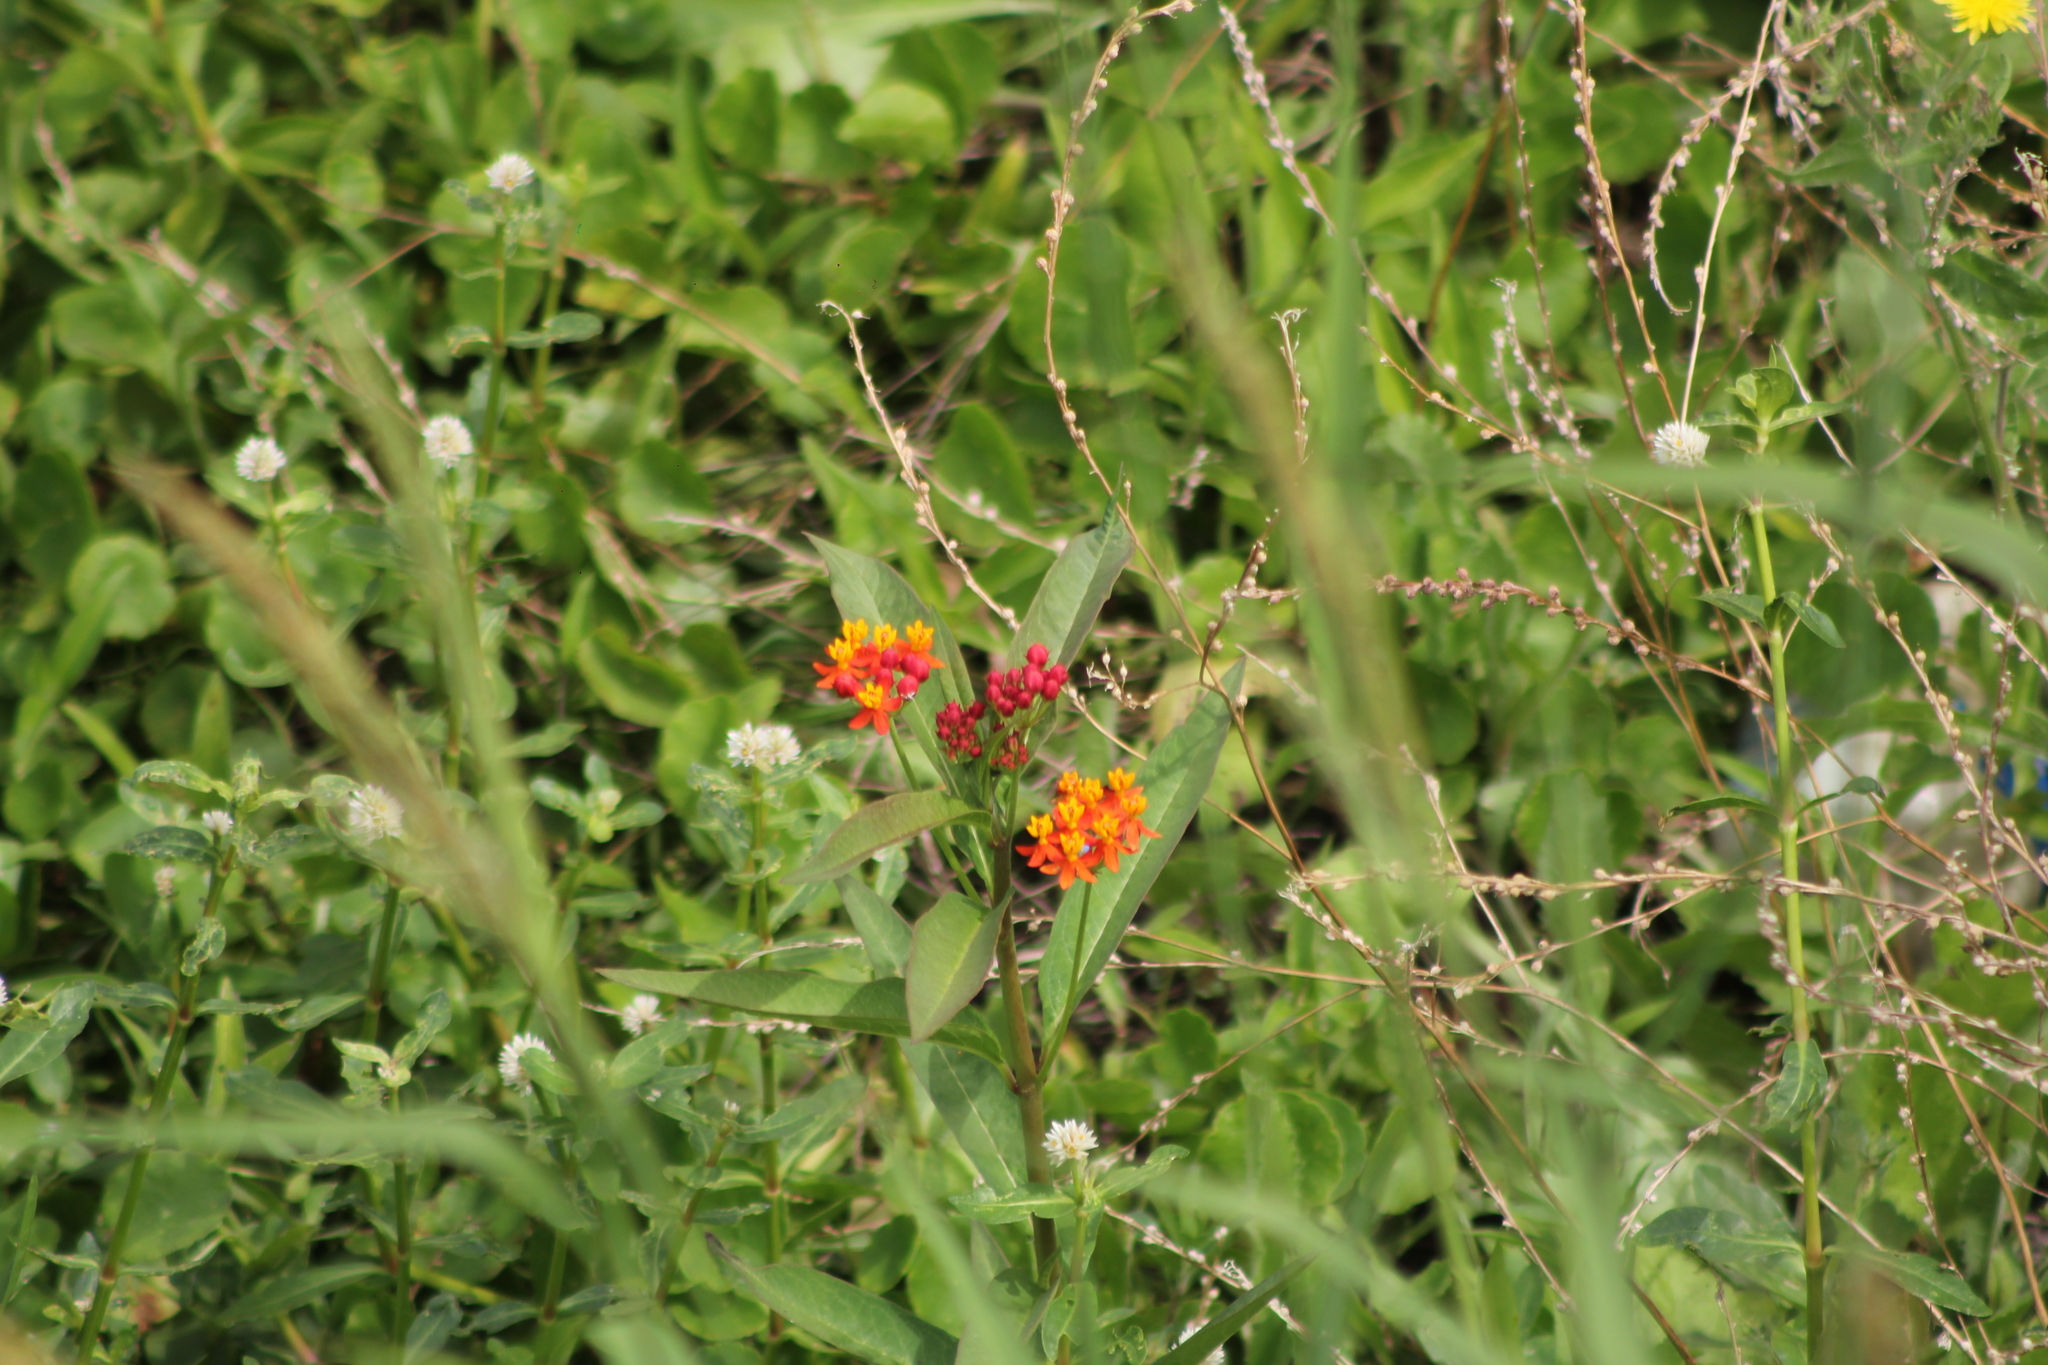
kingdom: Plantae
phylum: Tracheophyta
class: Magnoliopsida
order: Gentianales
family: Apocynaceae
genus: Asclepias
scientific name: Asclepias curassavica
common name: Bloodflower
